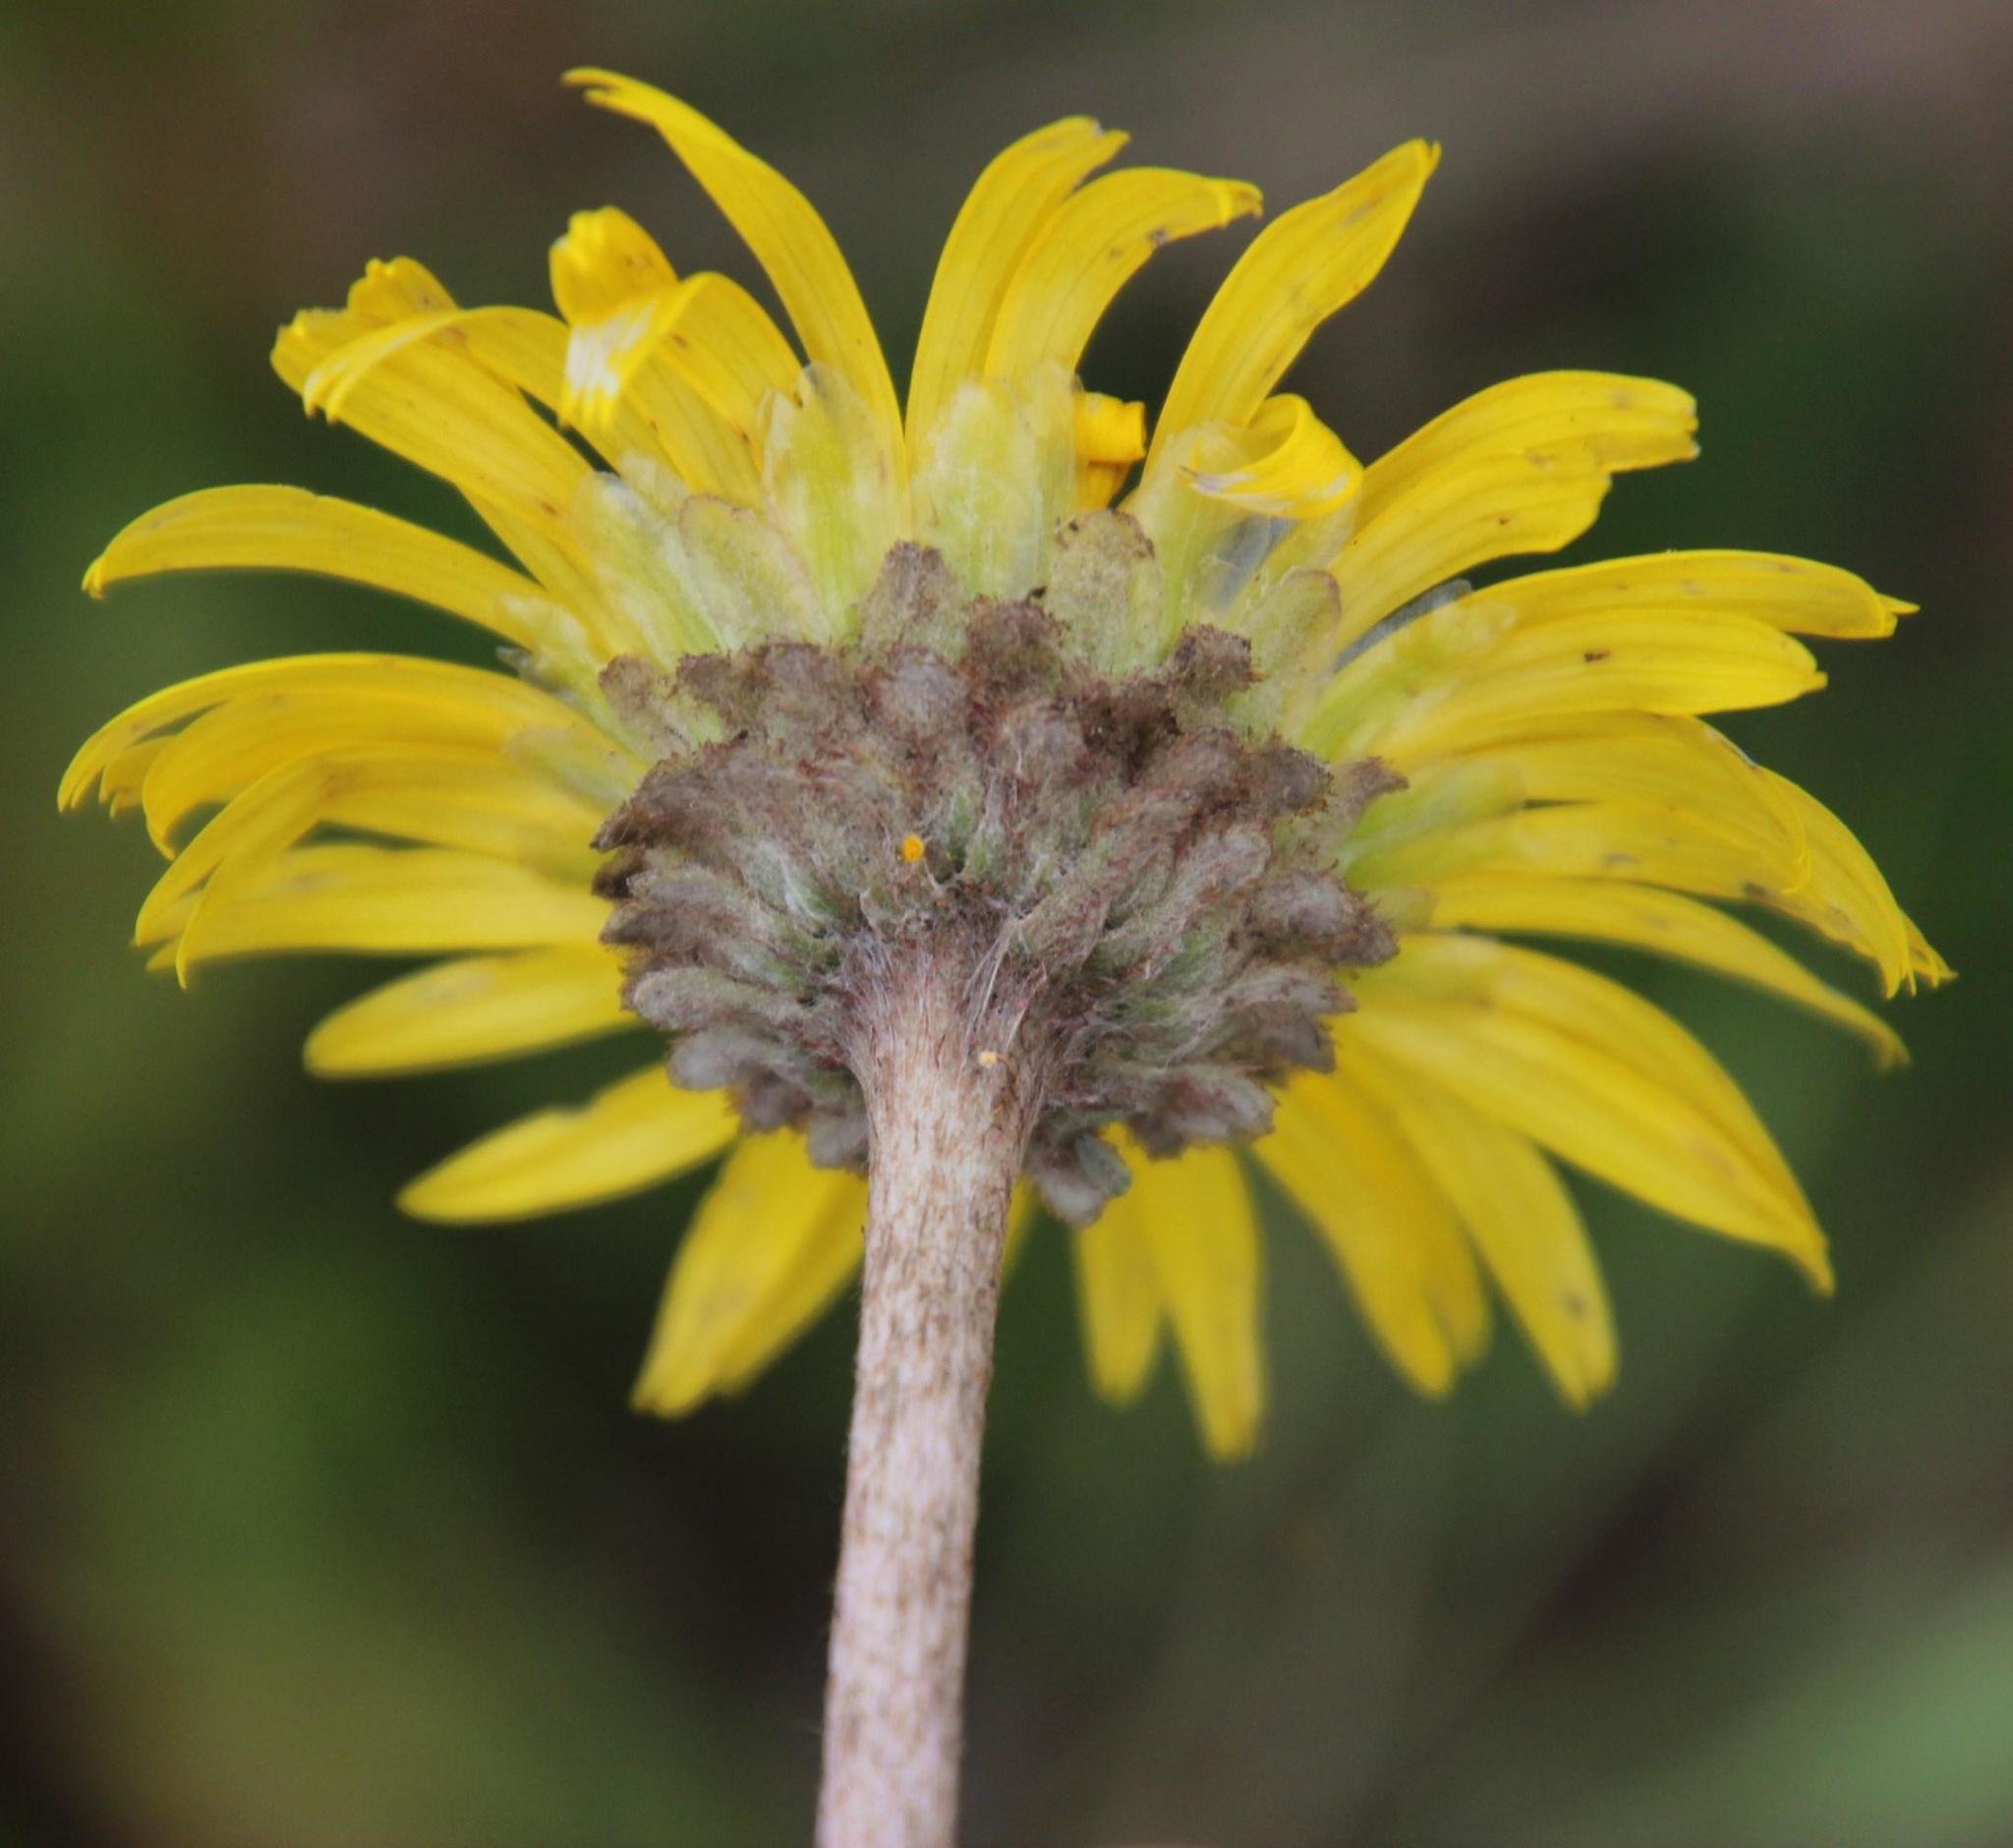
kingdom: Plantae
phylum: Tracheophyta
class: Magnoliopsida
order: Asterales
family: Asteraceae
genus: Haplocarpha
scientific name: Haplocarpha scaposa
